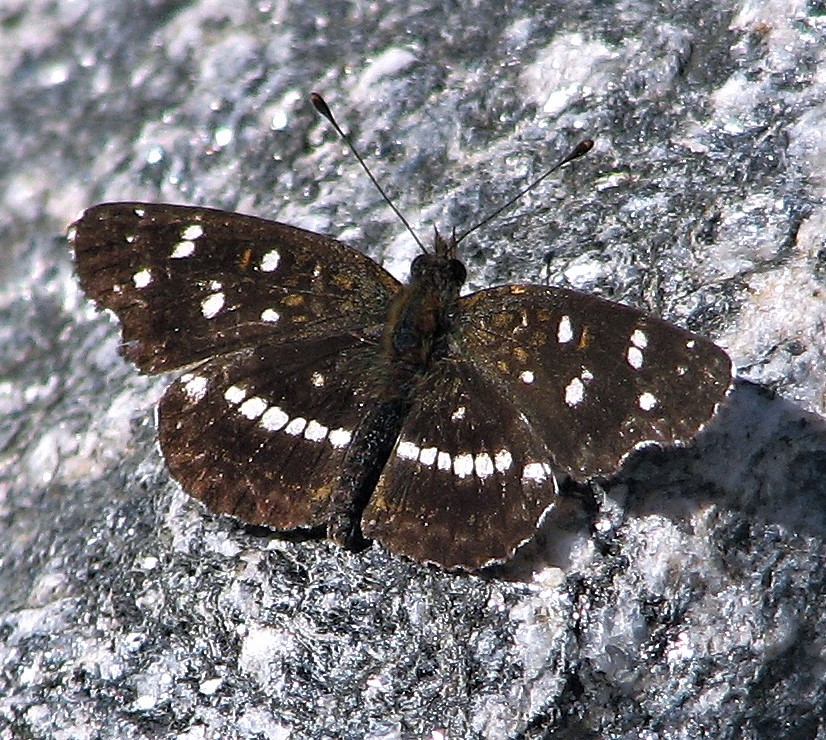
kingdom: Animalia
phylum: Arthropoda
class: Insecta
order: Lepidoptera
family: Nymphalidae
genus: Ortilia
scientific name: Ortilia ithra
